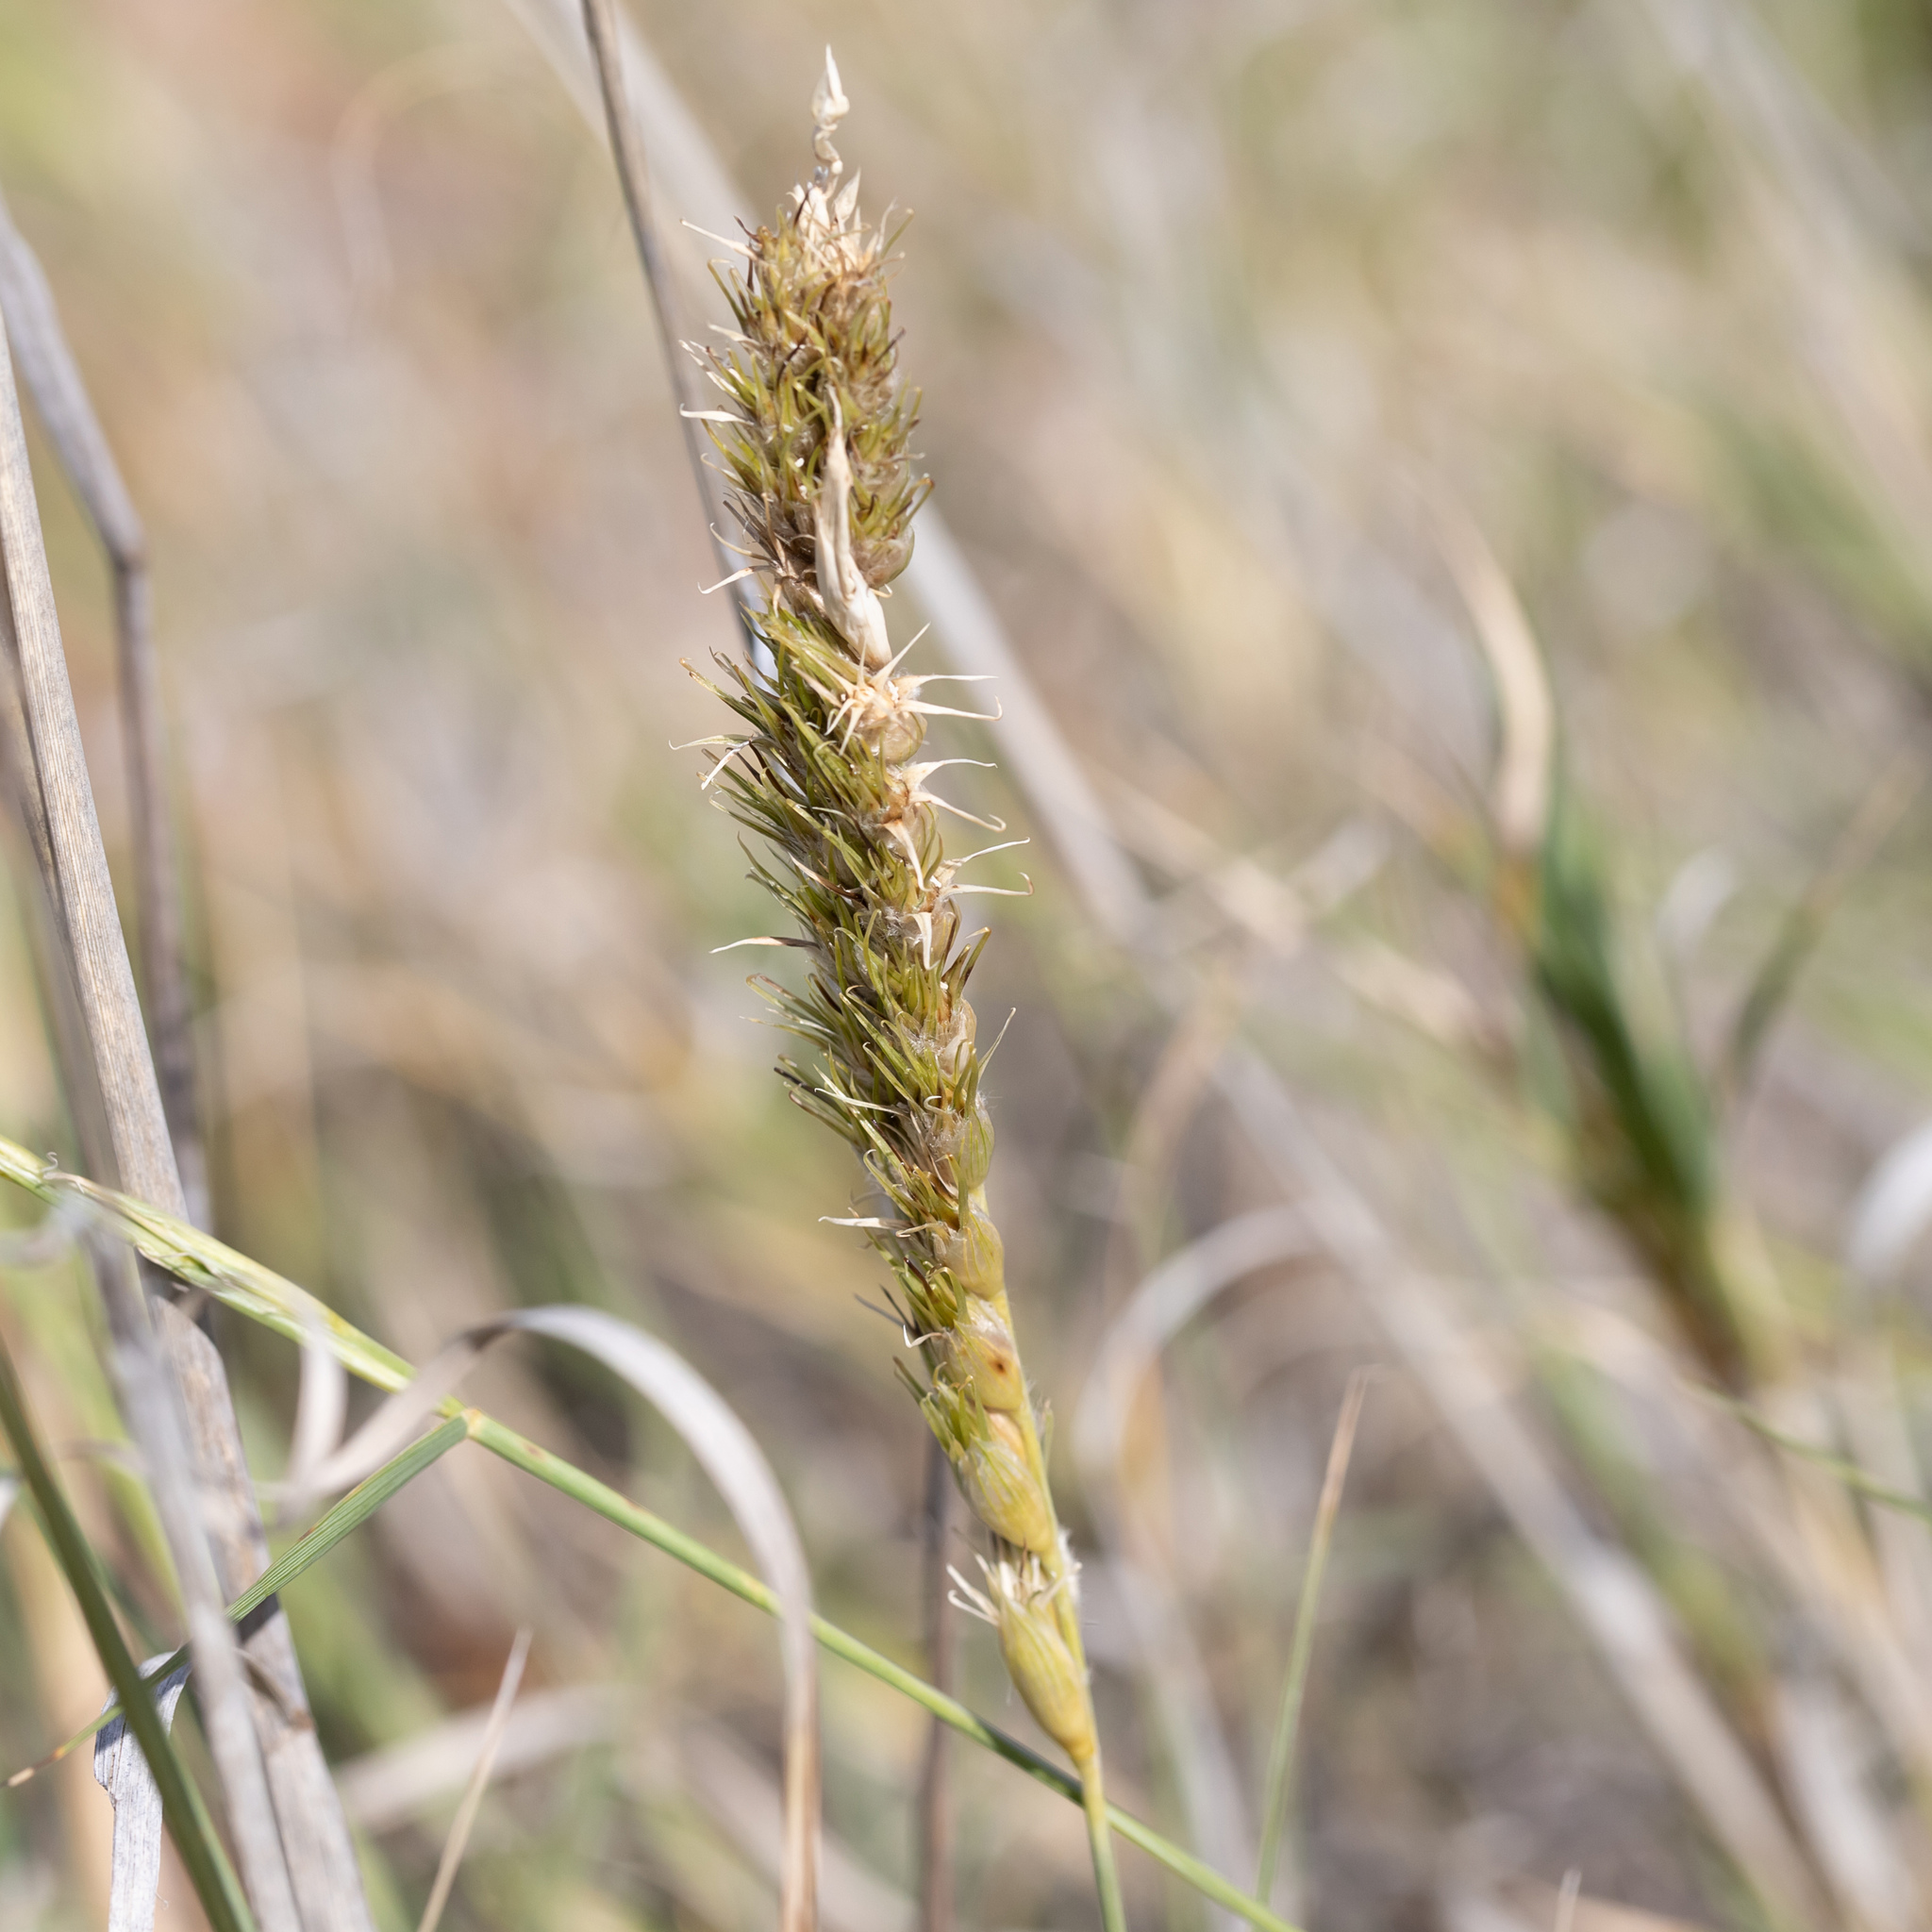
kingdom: Plantae
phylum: Tracheophyta
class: Liliopsida
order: Poales
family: Poaceae
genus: Astrebla
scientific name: Astrebla squarrosa
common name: Wheat-ear mitchell grass
